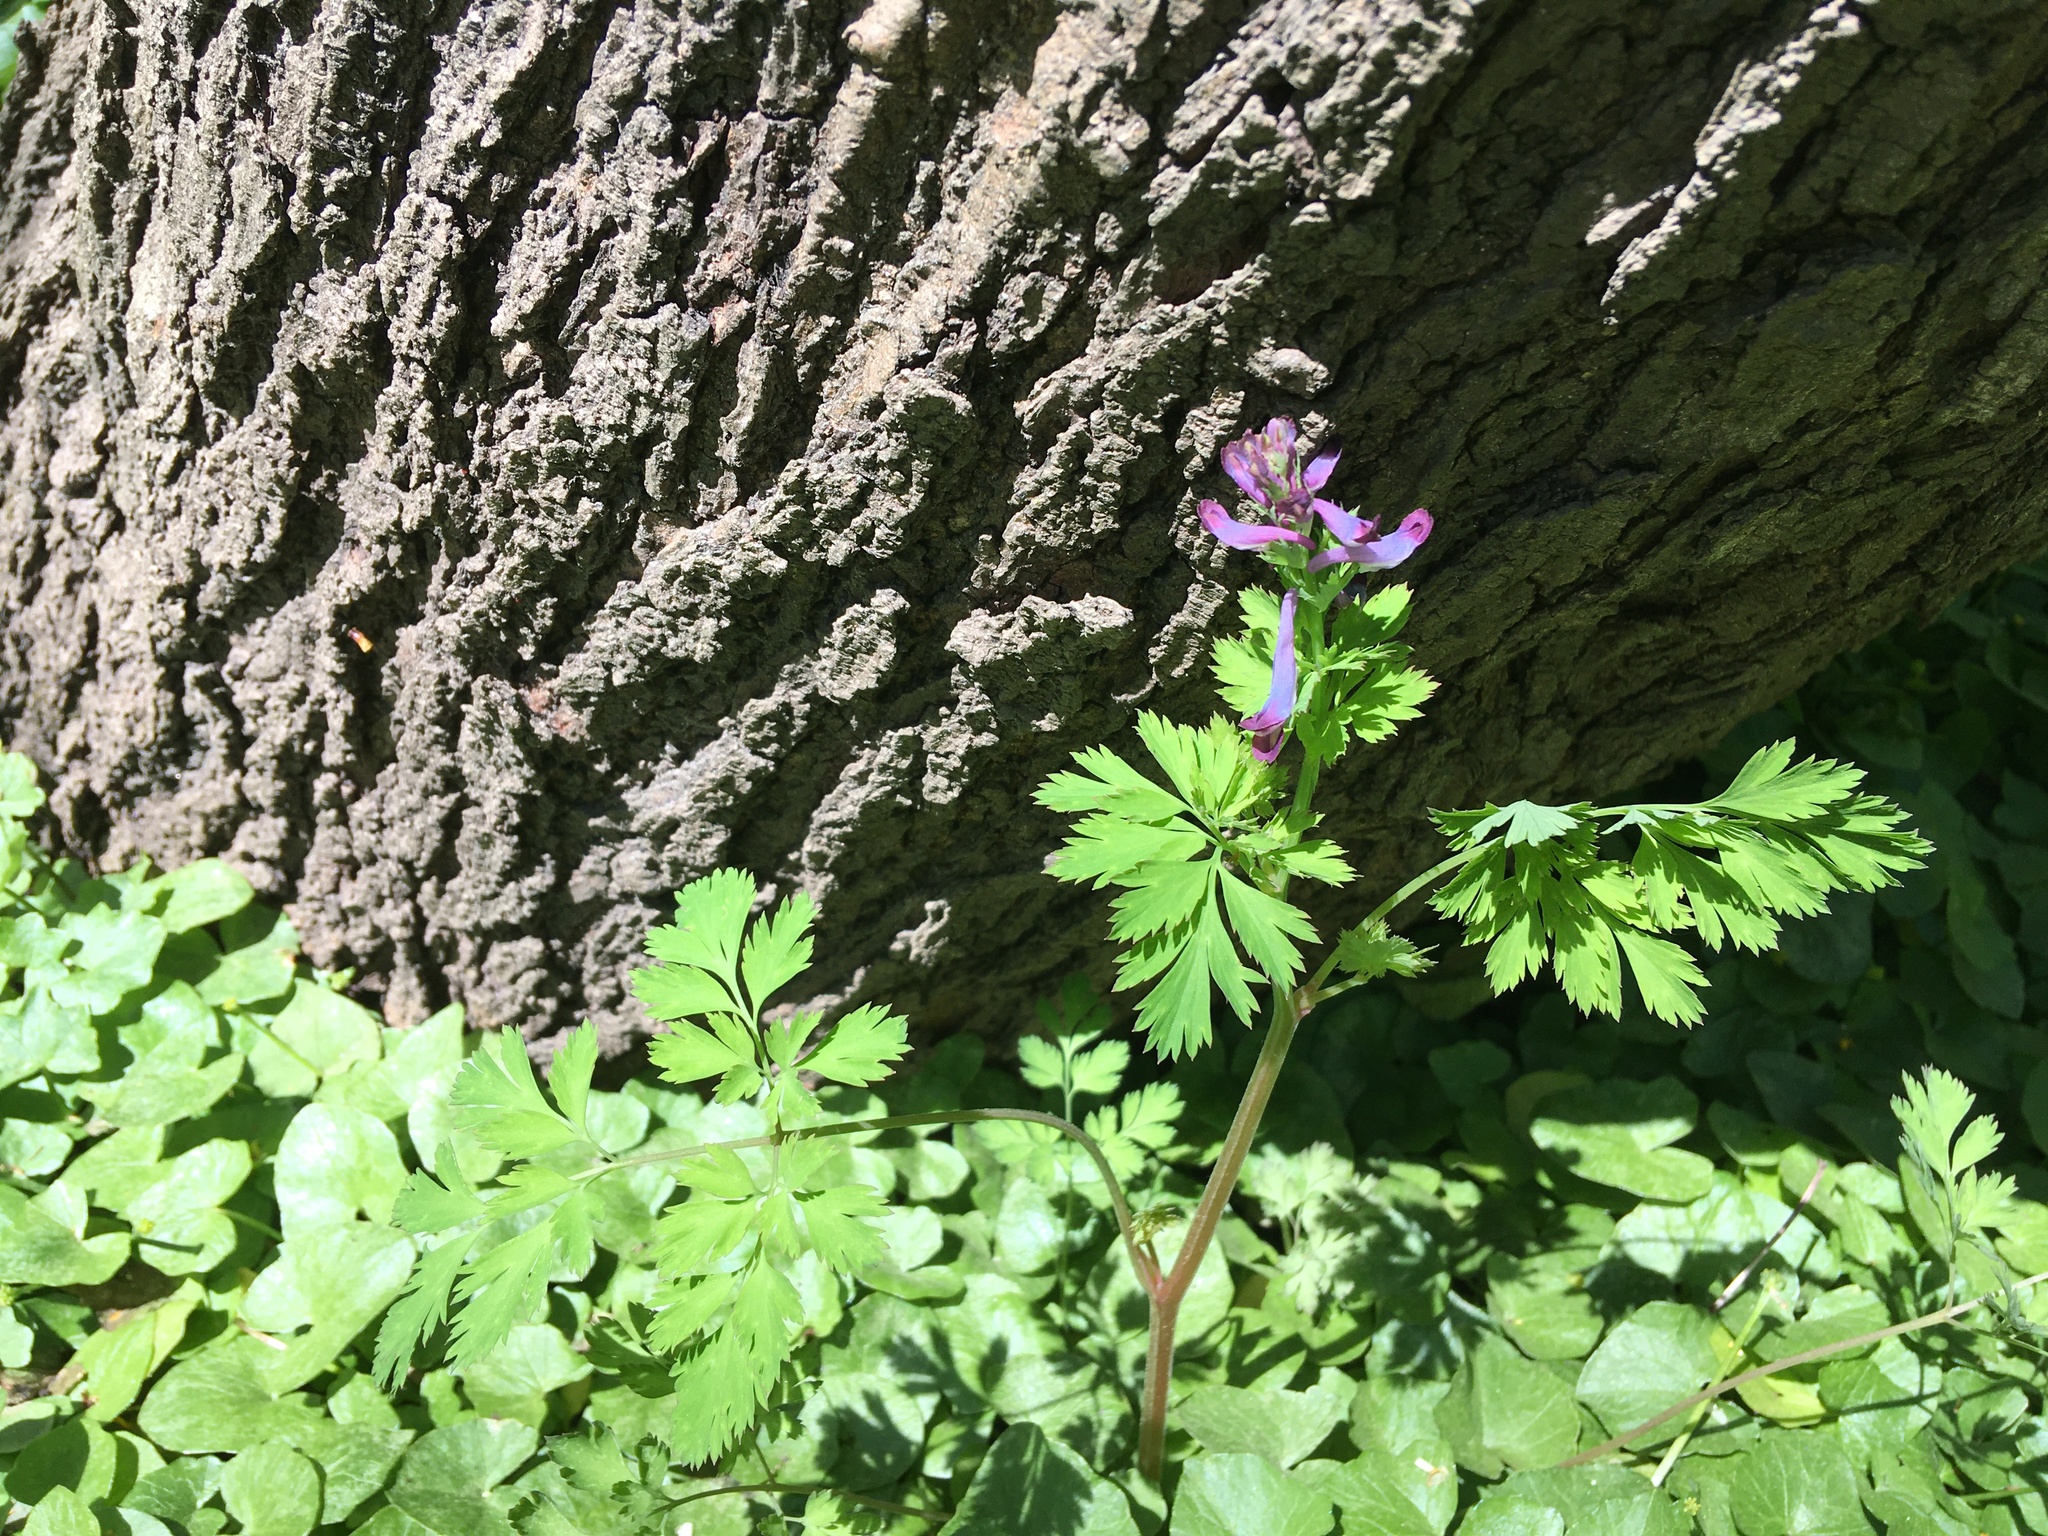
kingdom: Plantae
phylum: Tracheophyta
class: Magnoliopsida
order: Ranunculales
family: Papaveraceae
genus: Corydalis
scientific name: Corydalis incisa
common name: Incised fumewort
